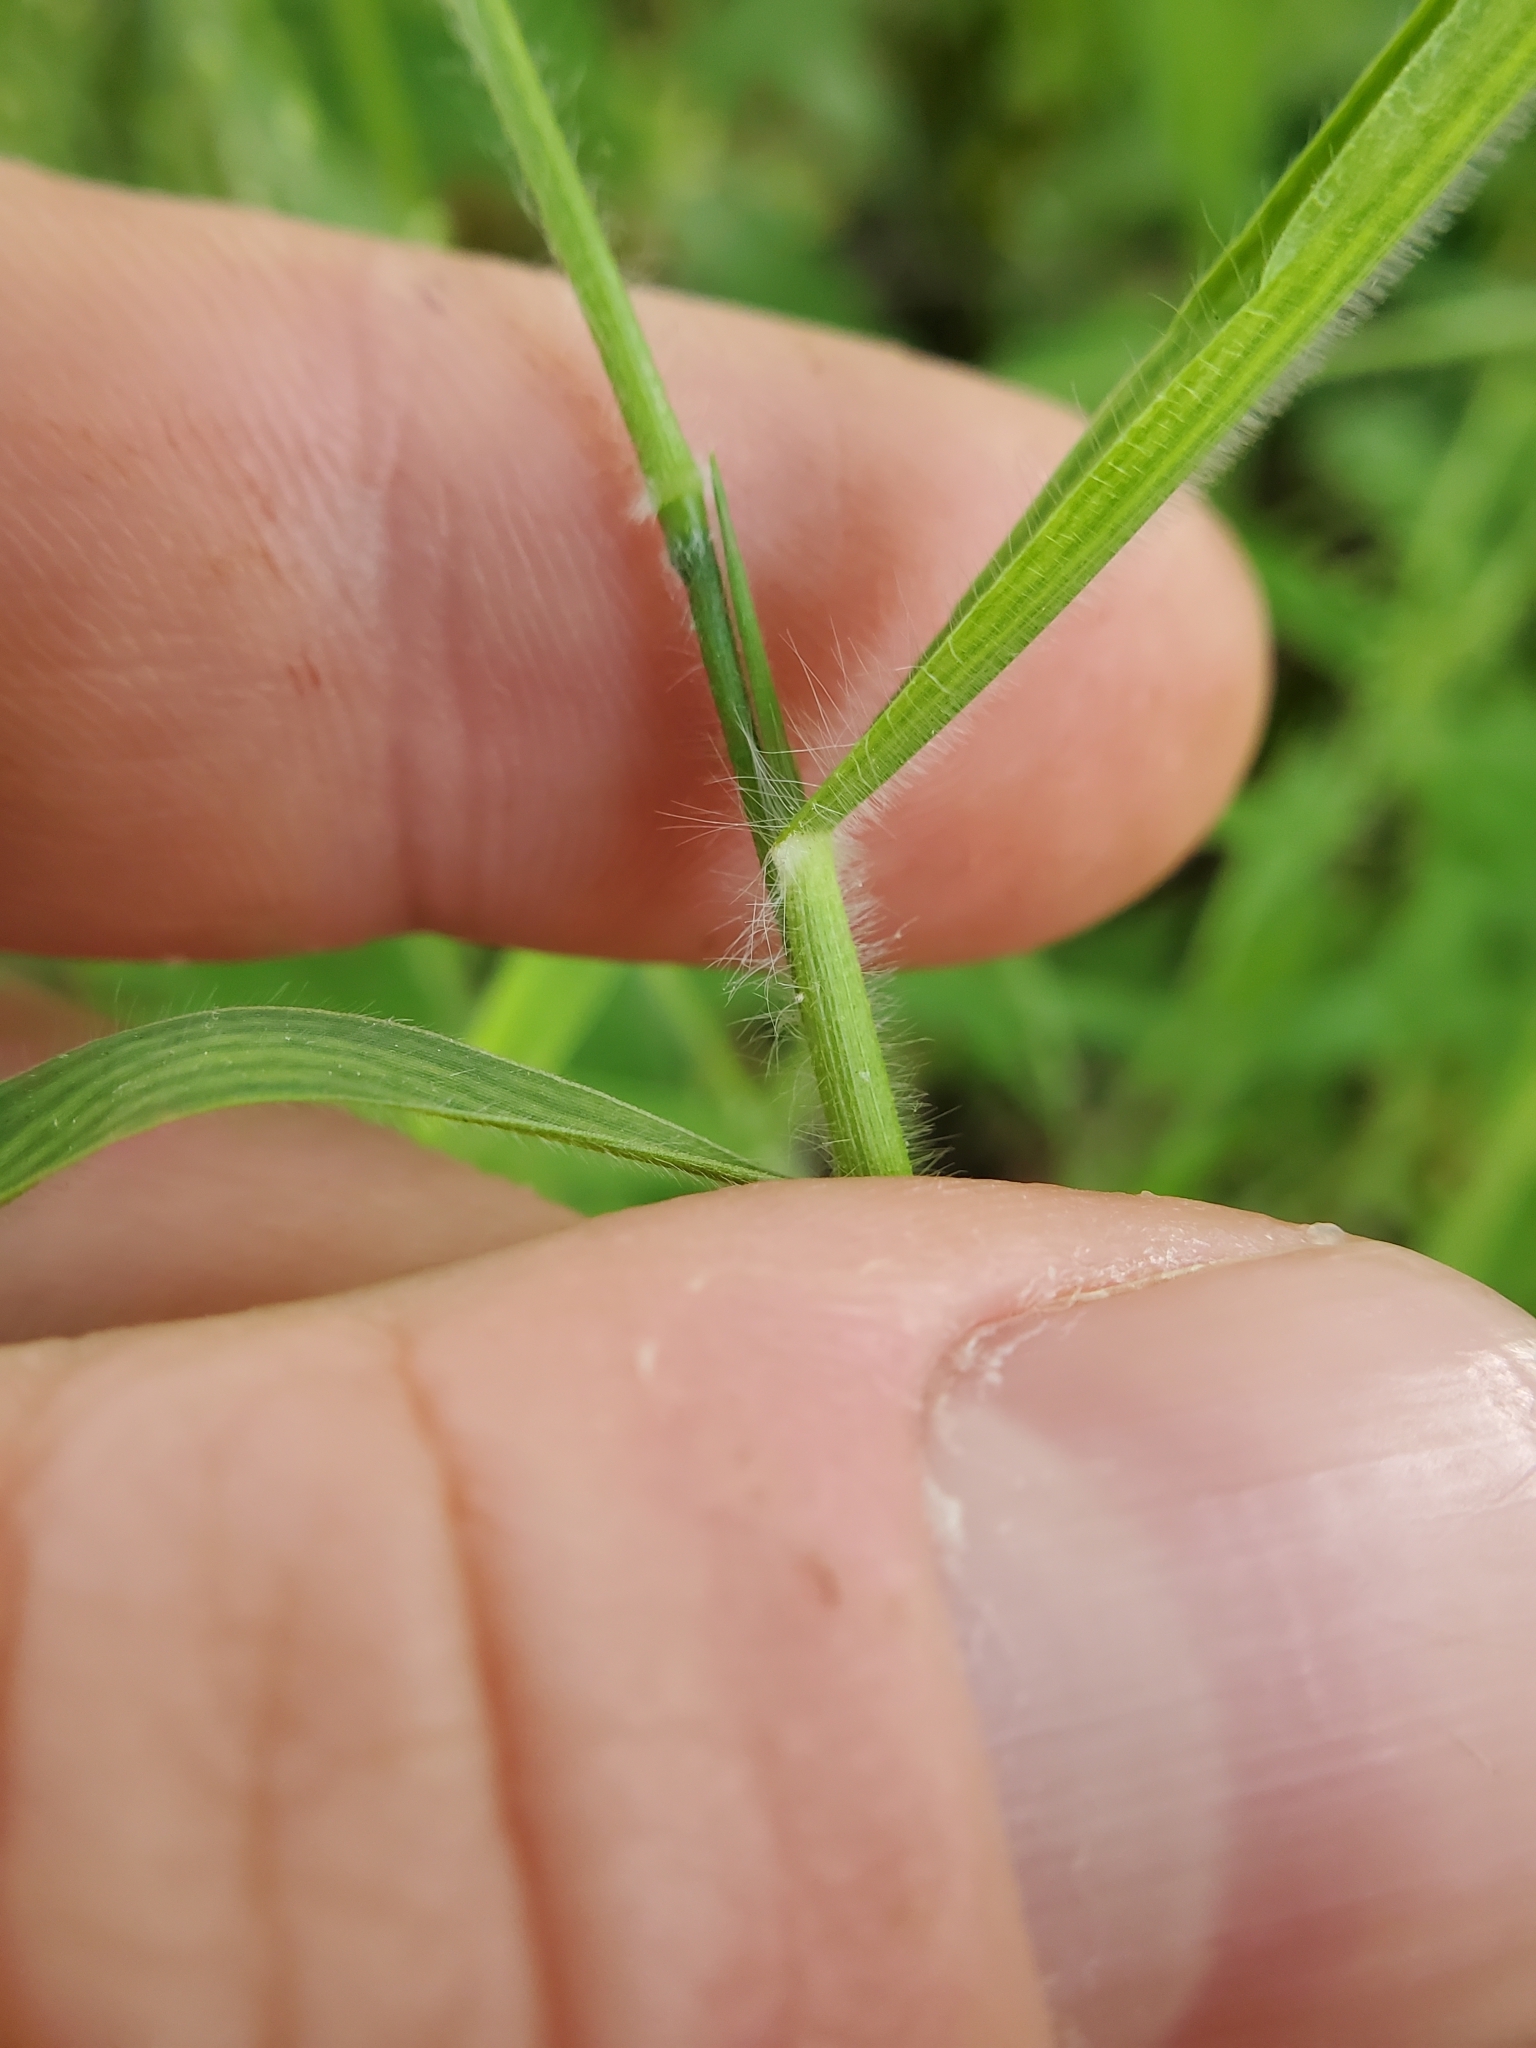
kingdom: Plantae
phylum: Tracheophyta
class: Liliopsida
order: Poales
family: Poaceae
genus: Dichanthelium
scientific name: Dichanthelium scoparium
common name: Velvety panic grass
